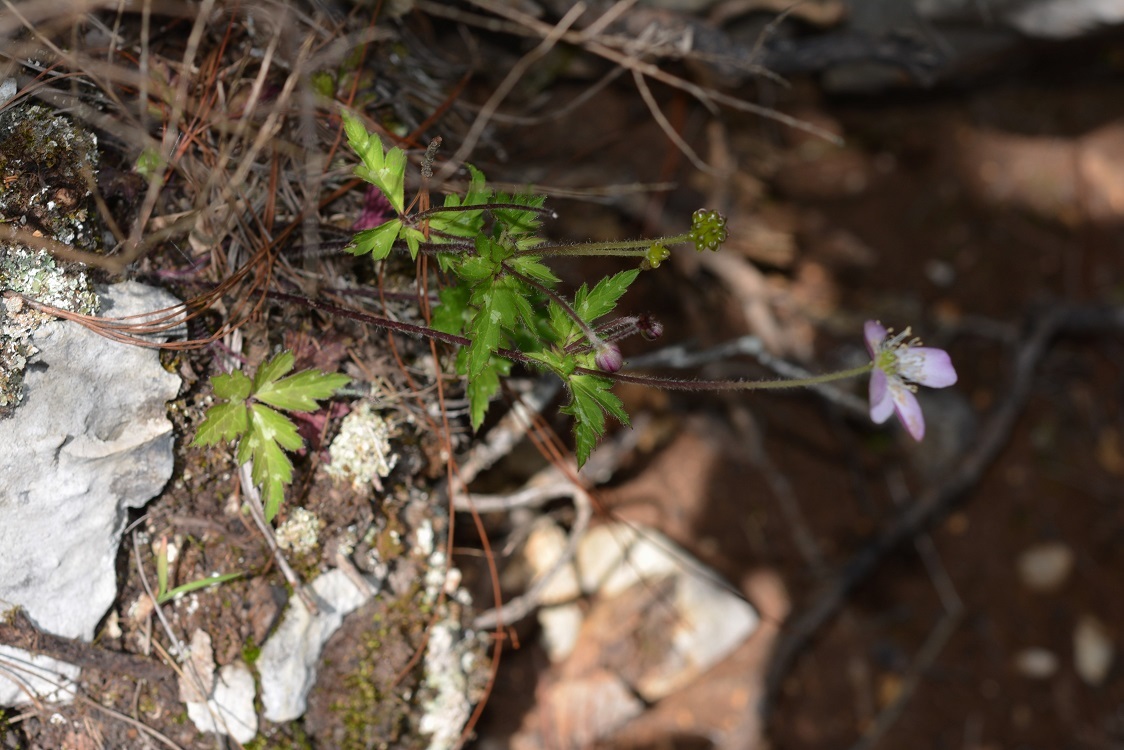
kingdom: Plantae
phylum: Tracheophyta
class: Magnoliopsida
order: Ranunculales
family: Ranunculaceae
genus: Knowltonia
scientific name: Knowltonia mexicana
